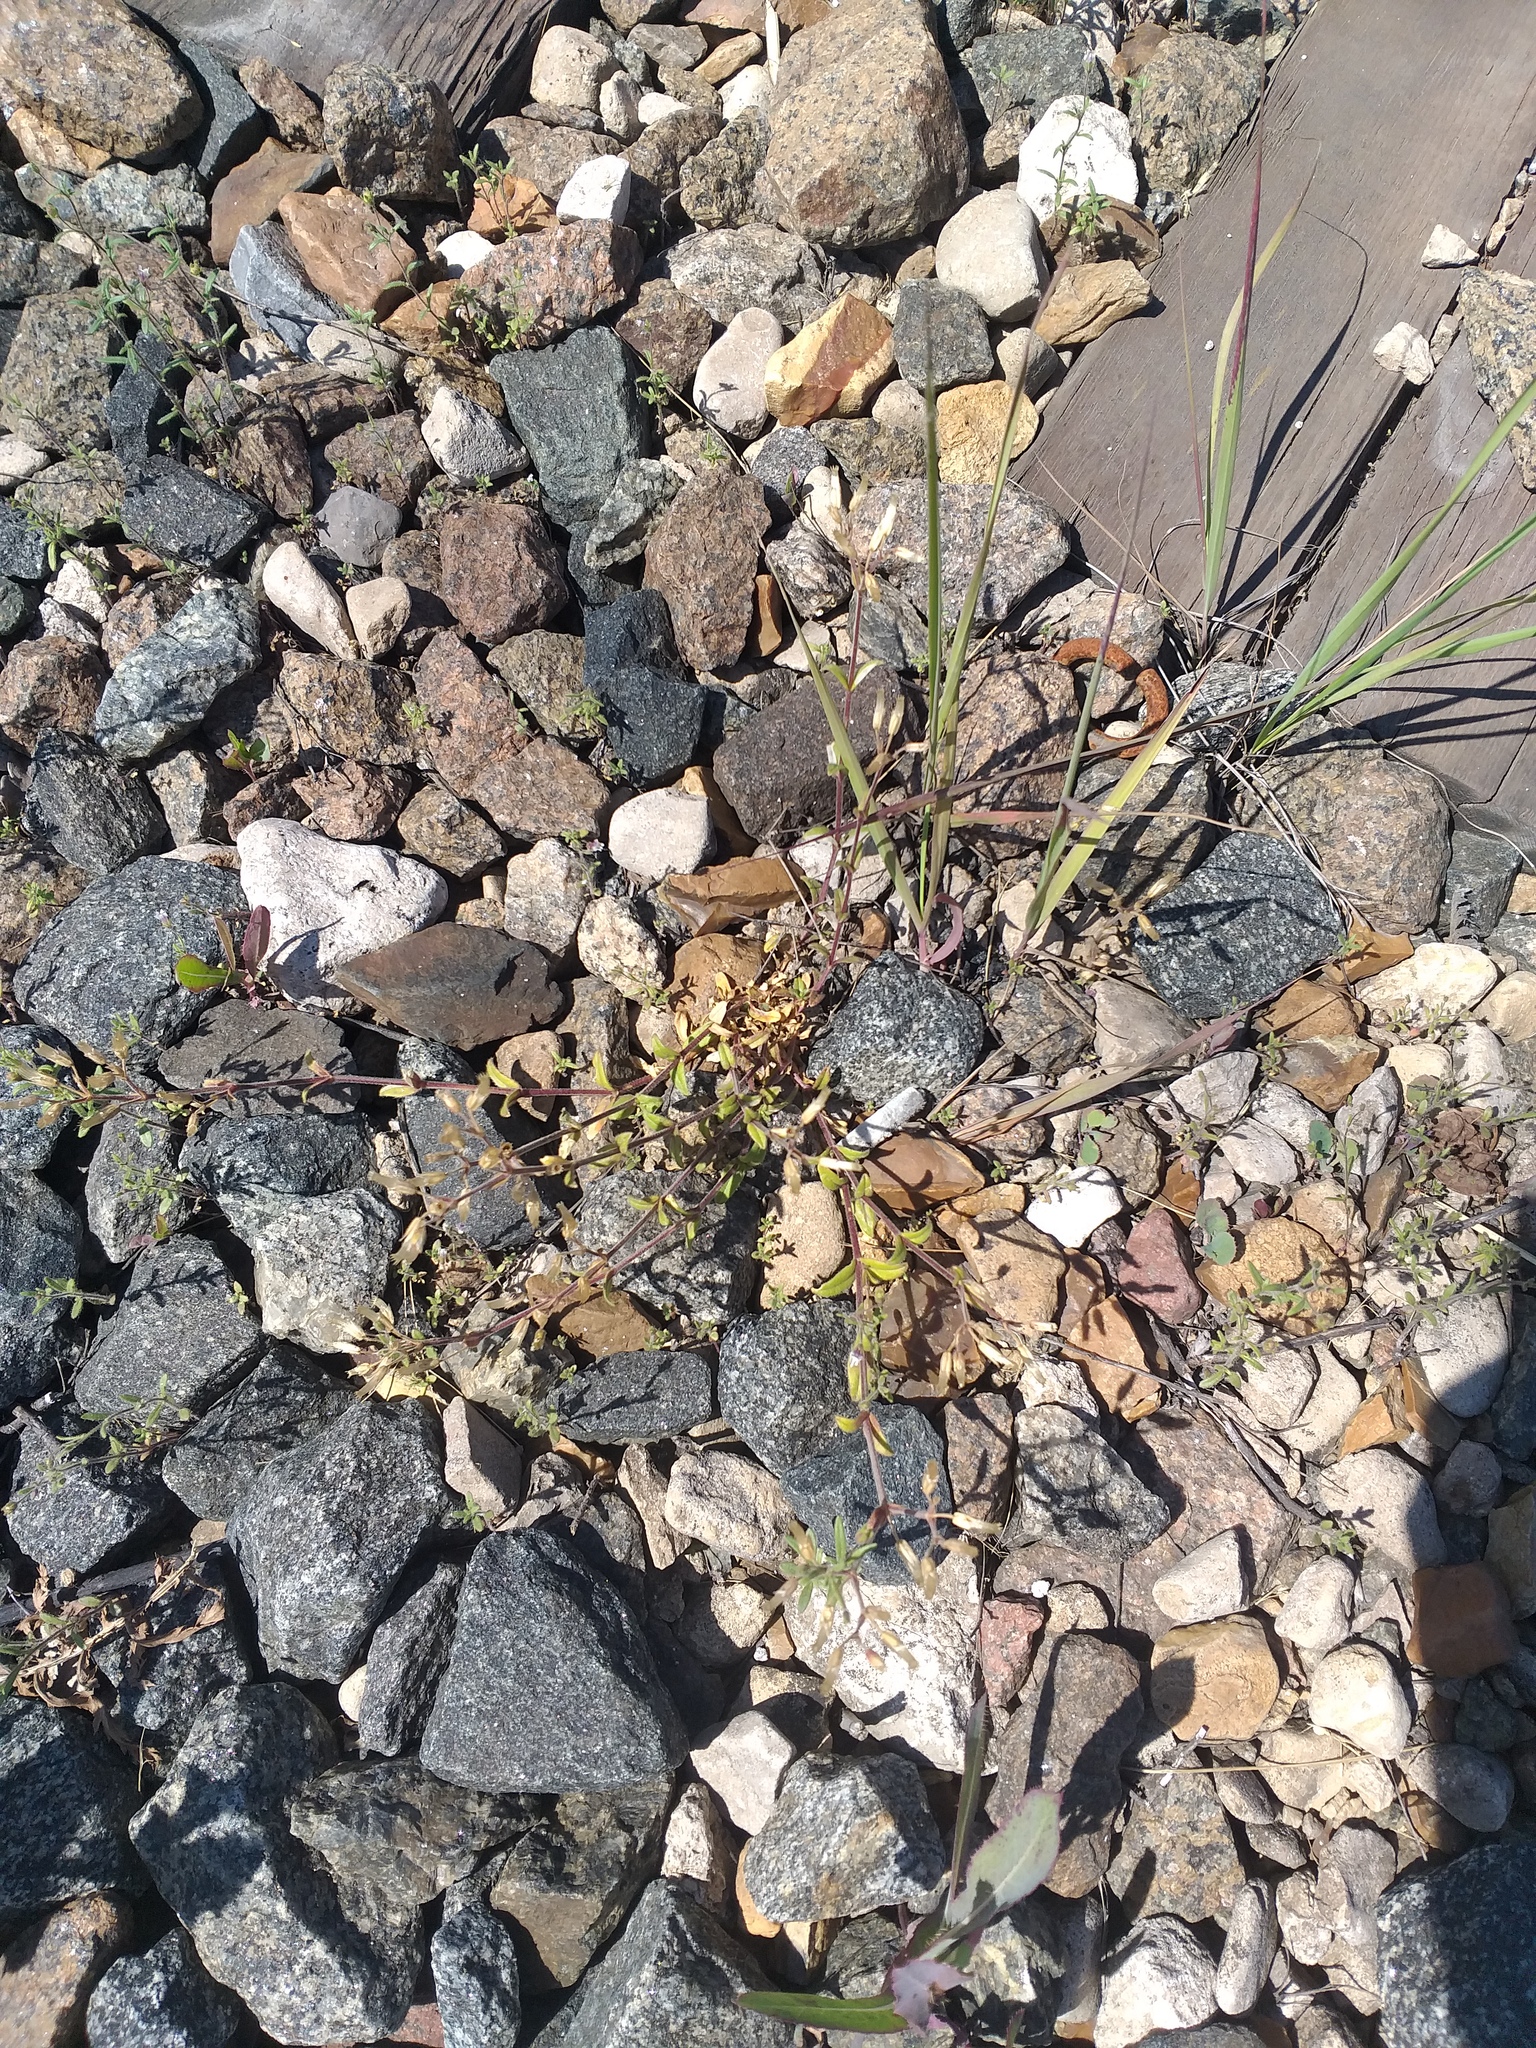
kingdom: Plantae
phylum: Tracheophyta
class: Magnoliopsida
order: Caryophyllales
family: Caryophyllaceae
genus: Cerastium
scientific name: Cerastium holosteoides
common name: Big chickweed
